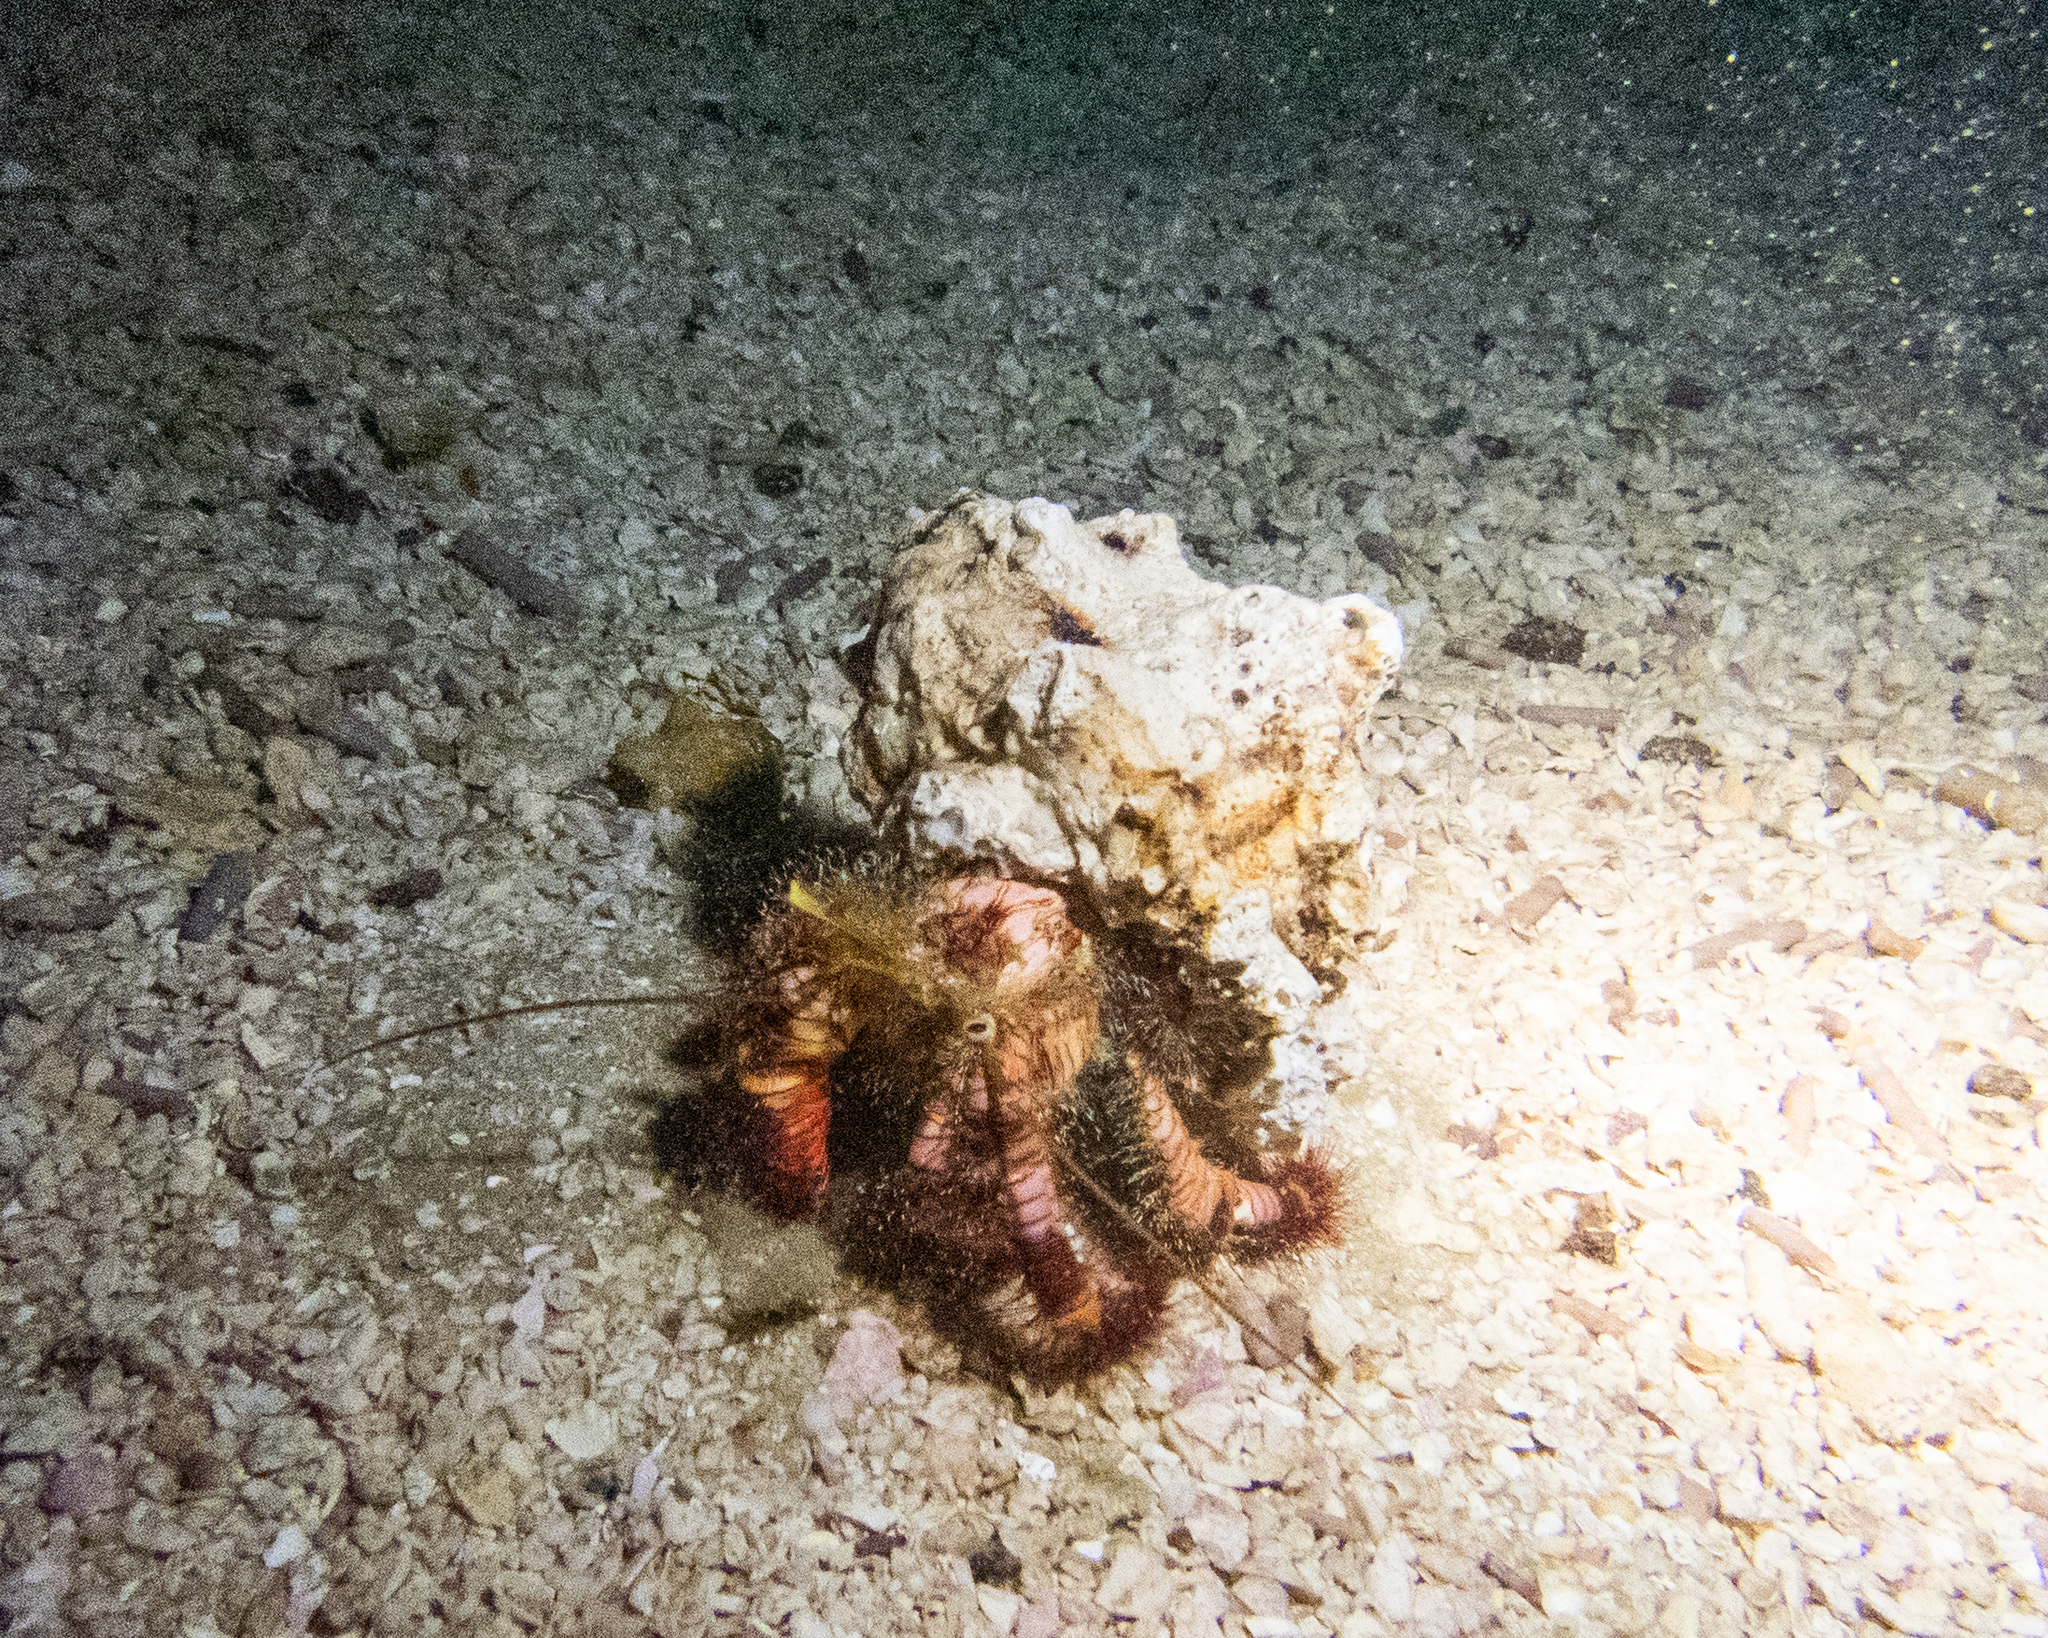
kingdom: Animalia
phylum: Arthropoda
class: Malacostraca
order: Decapoda
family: Diogenidae
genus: Aniculus
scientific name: Aniculus elegans
